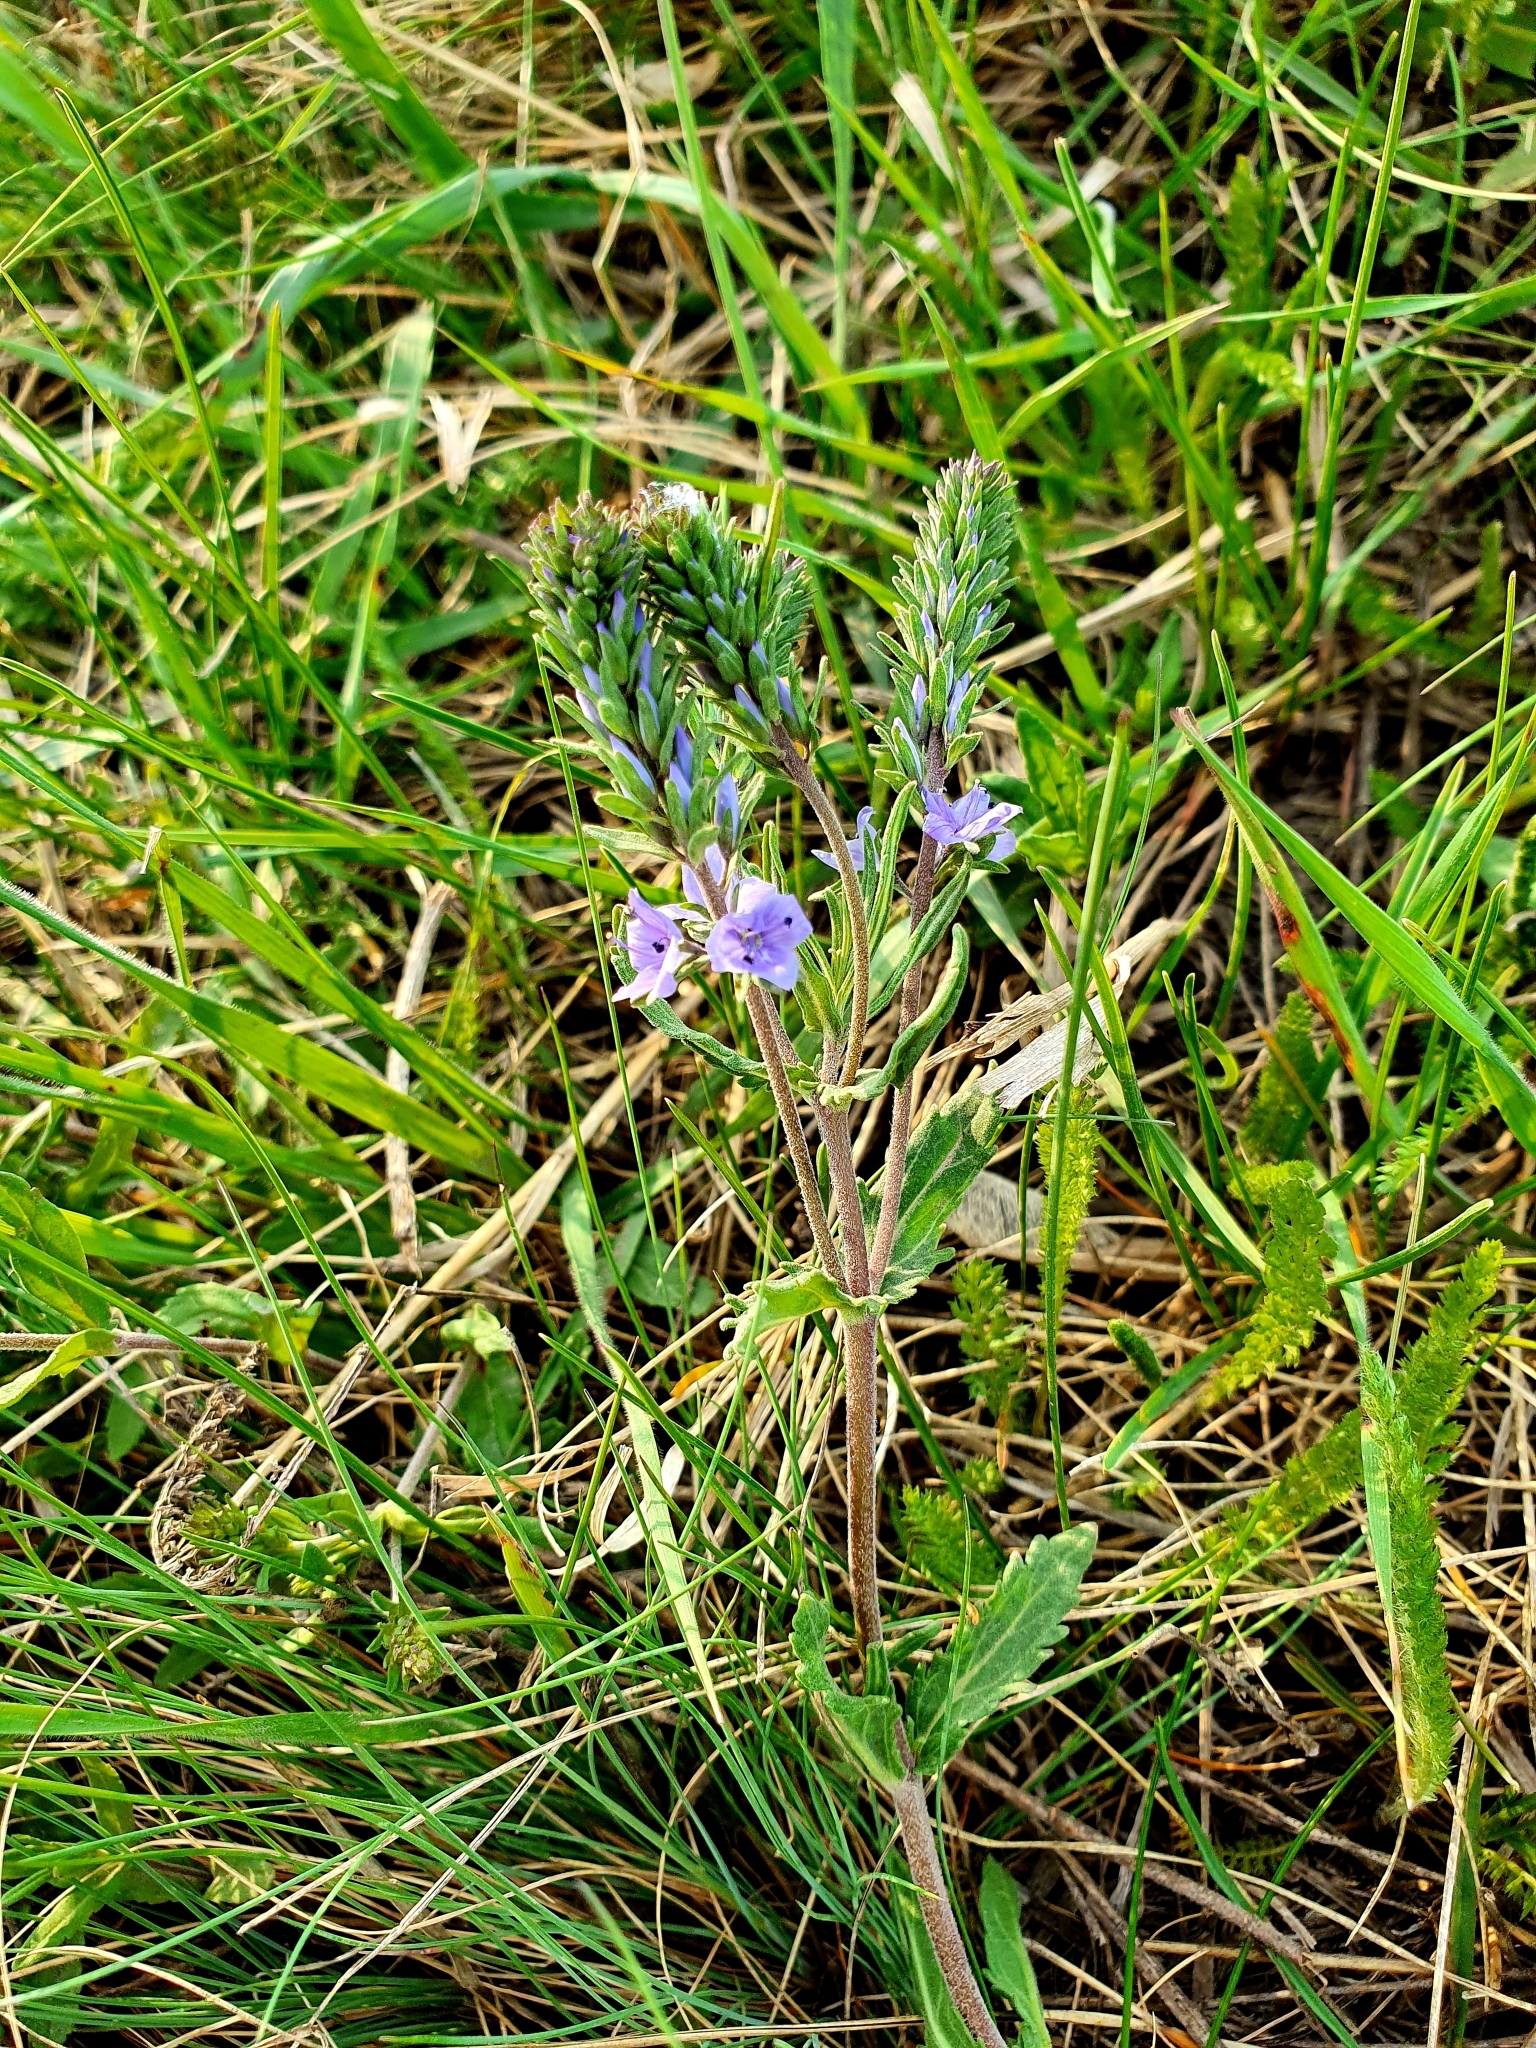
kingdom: Plantae
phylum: Tracheophyta
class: Magnoliopsida
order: Lamiales
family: Plantaginaceae
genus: Veronica
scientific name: Veronica prostrata
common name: Prostrate speedwell
